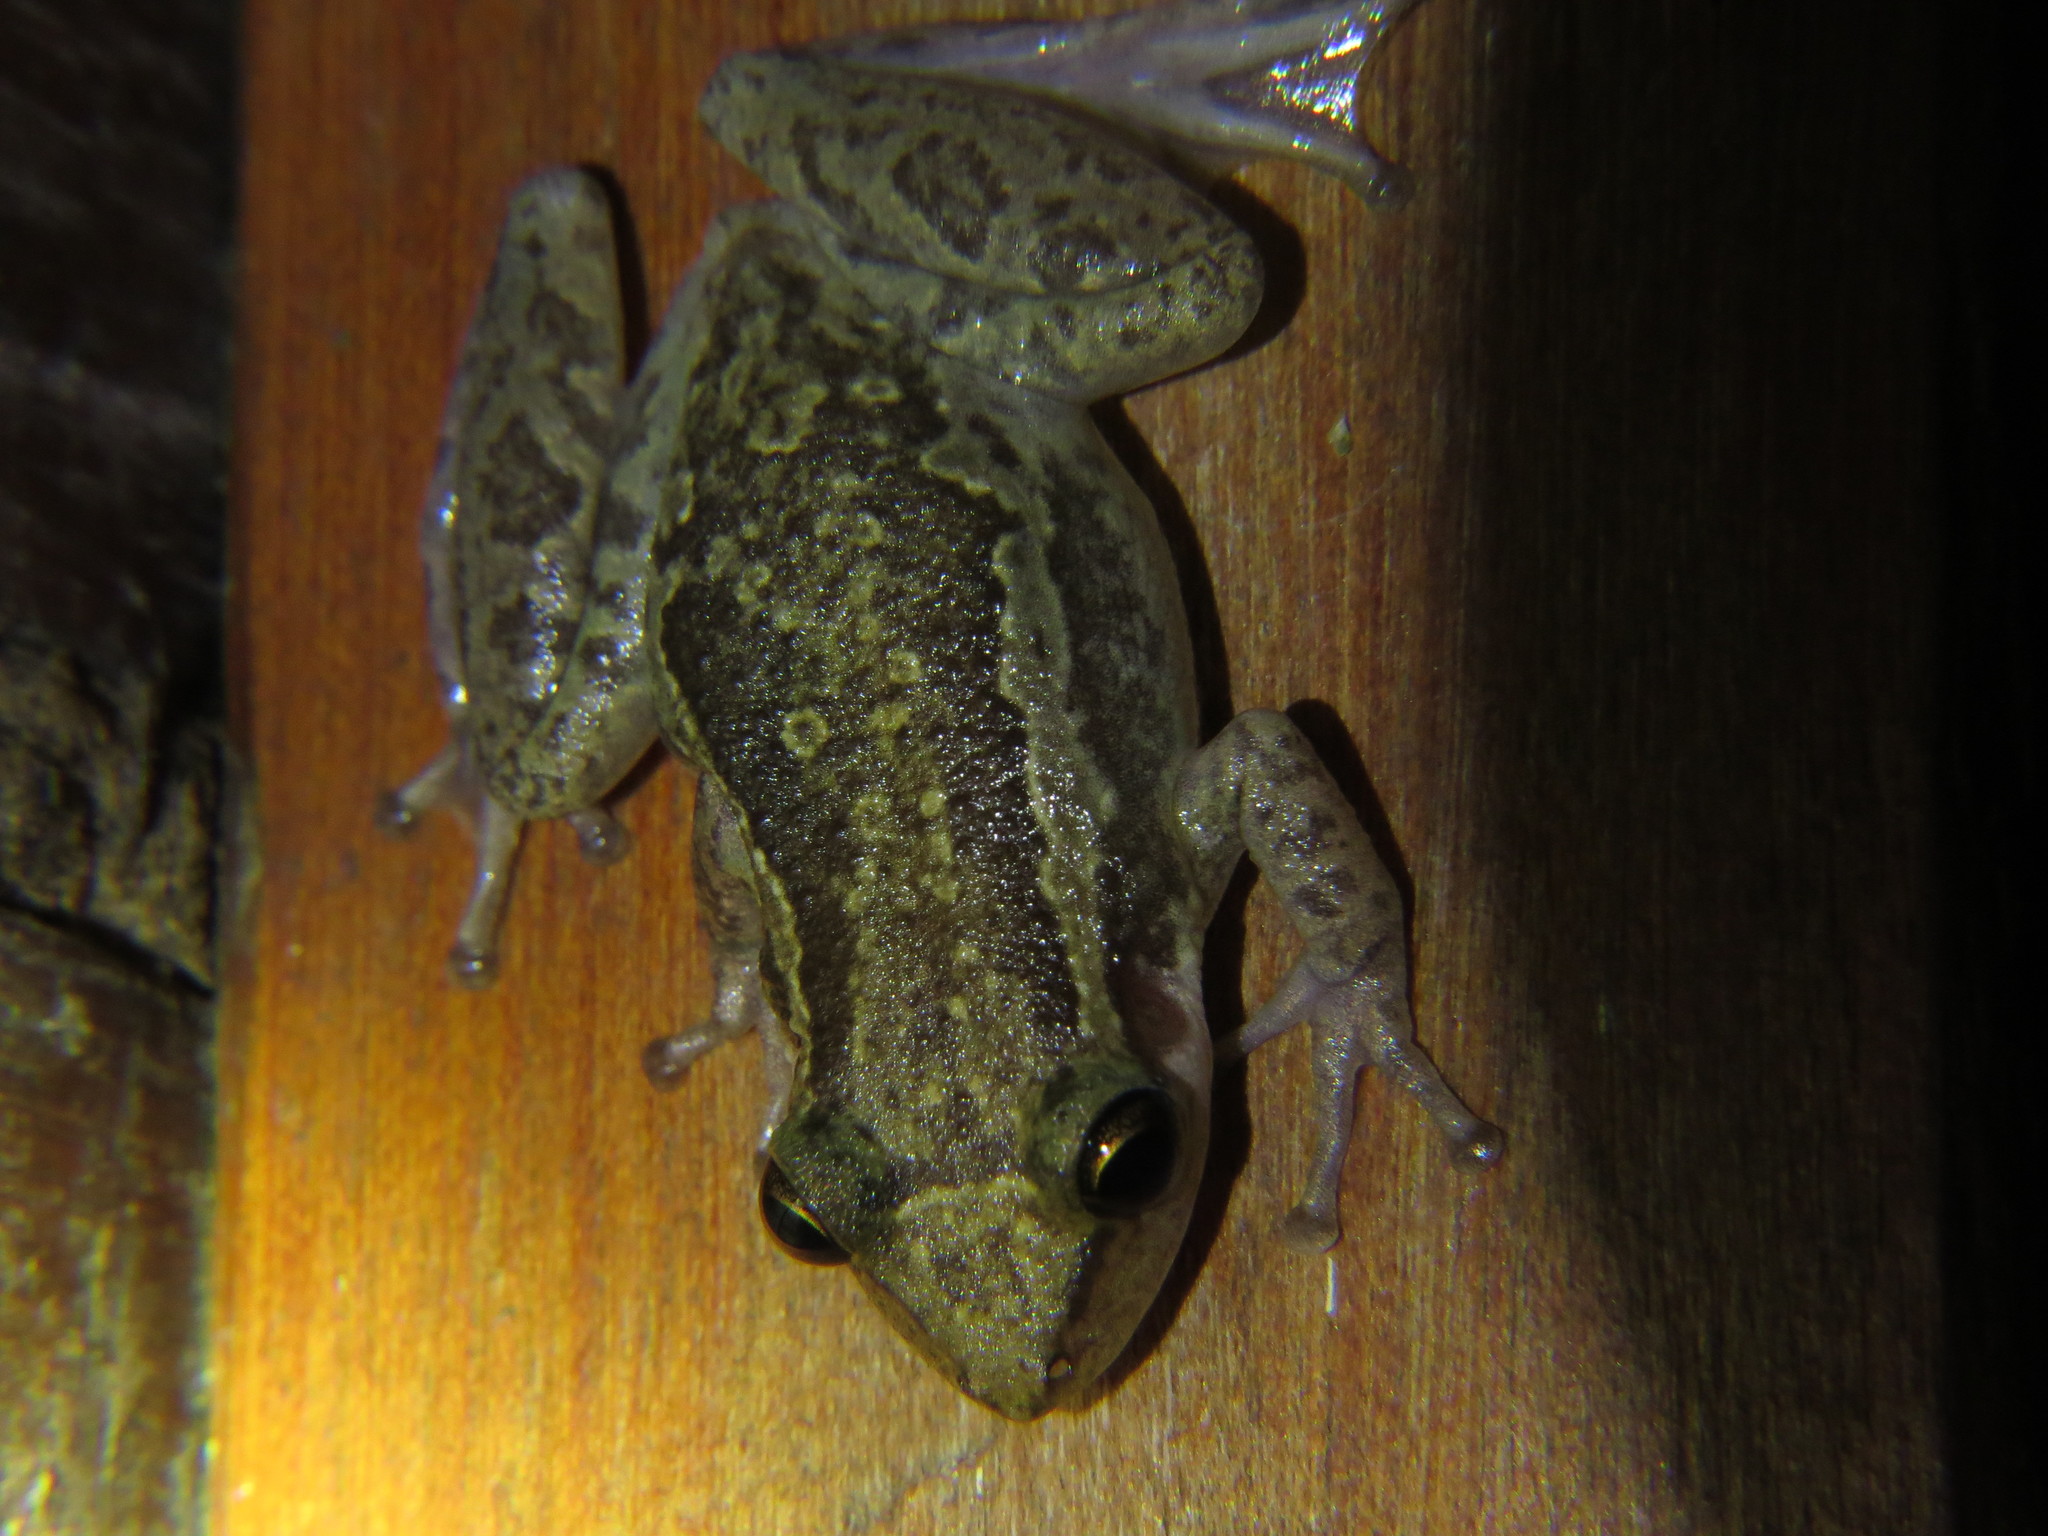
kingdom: Animalia
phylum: Chordata
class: Amphibia
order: Anura
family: Hylidae
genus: Scinax
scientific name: Scinax ruber
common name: Red snouted treefrog
